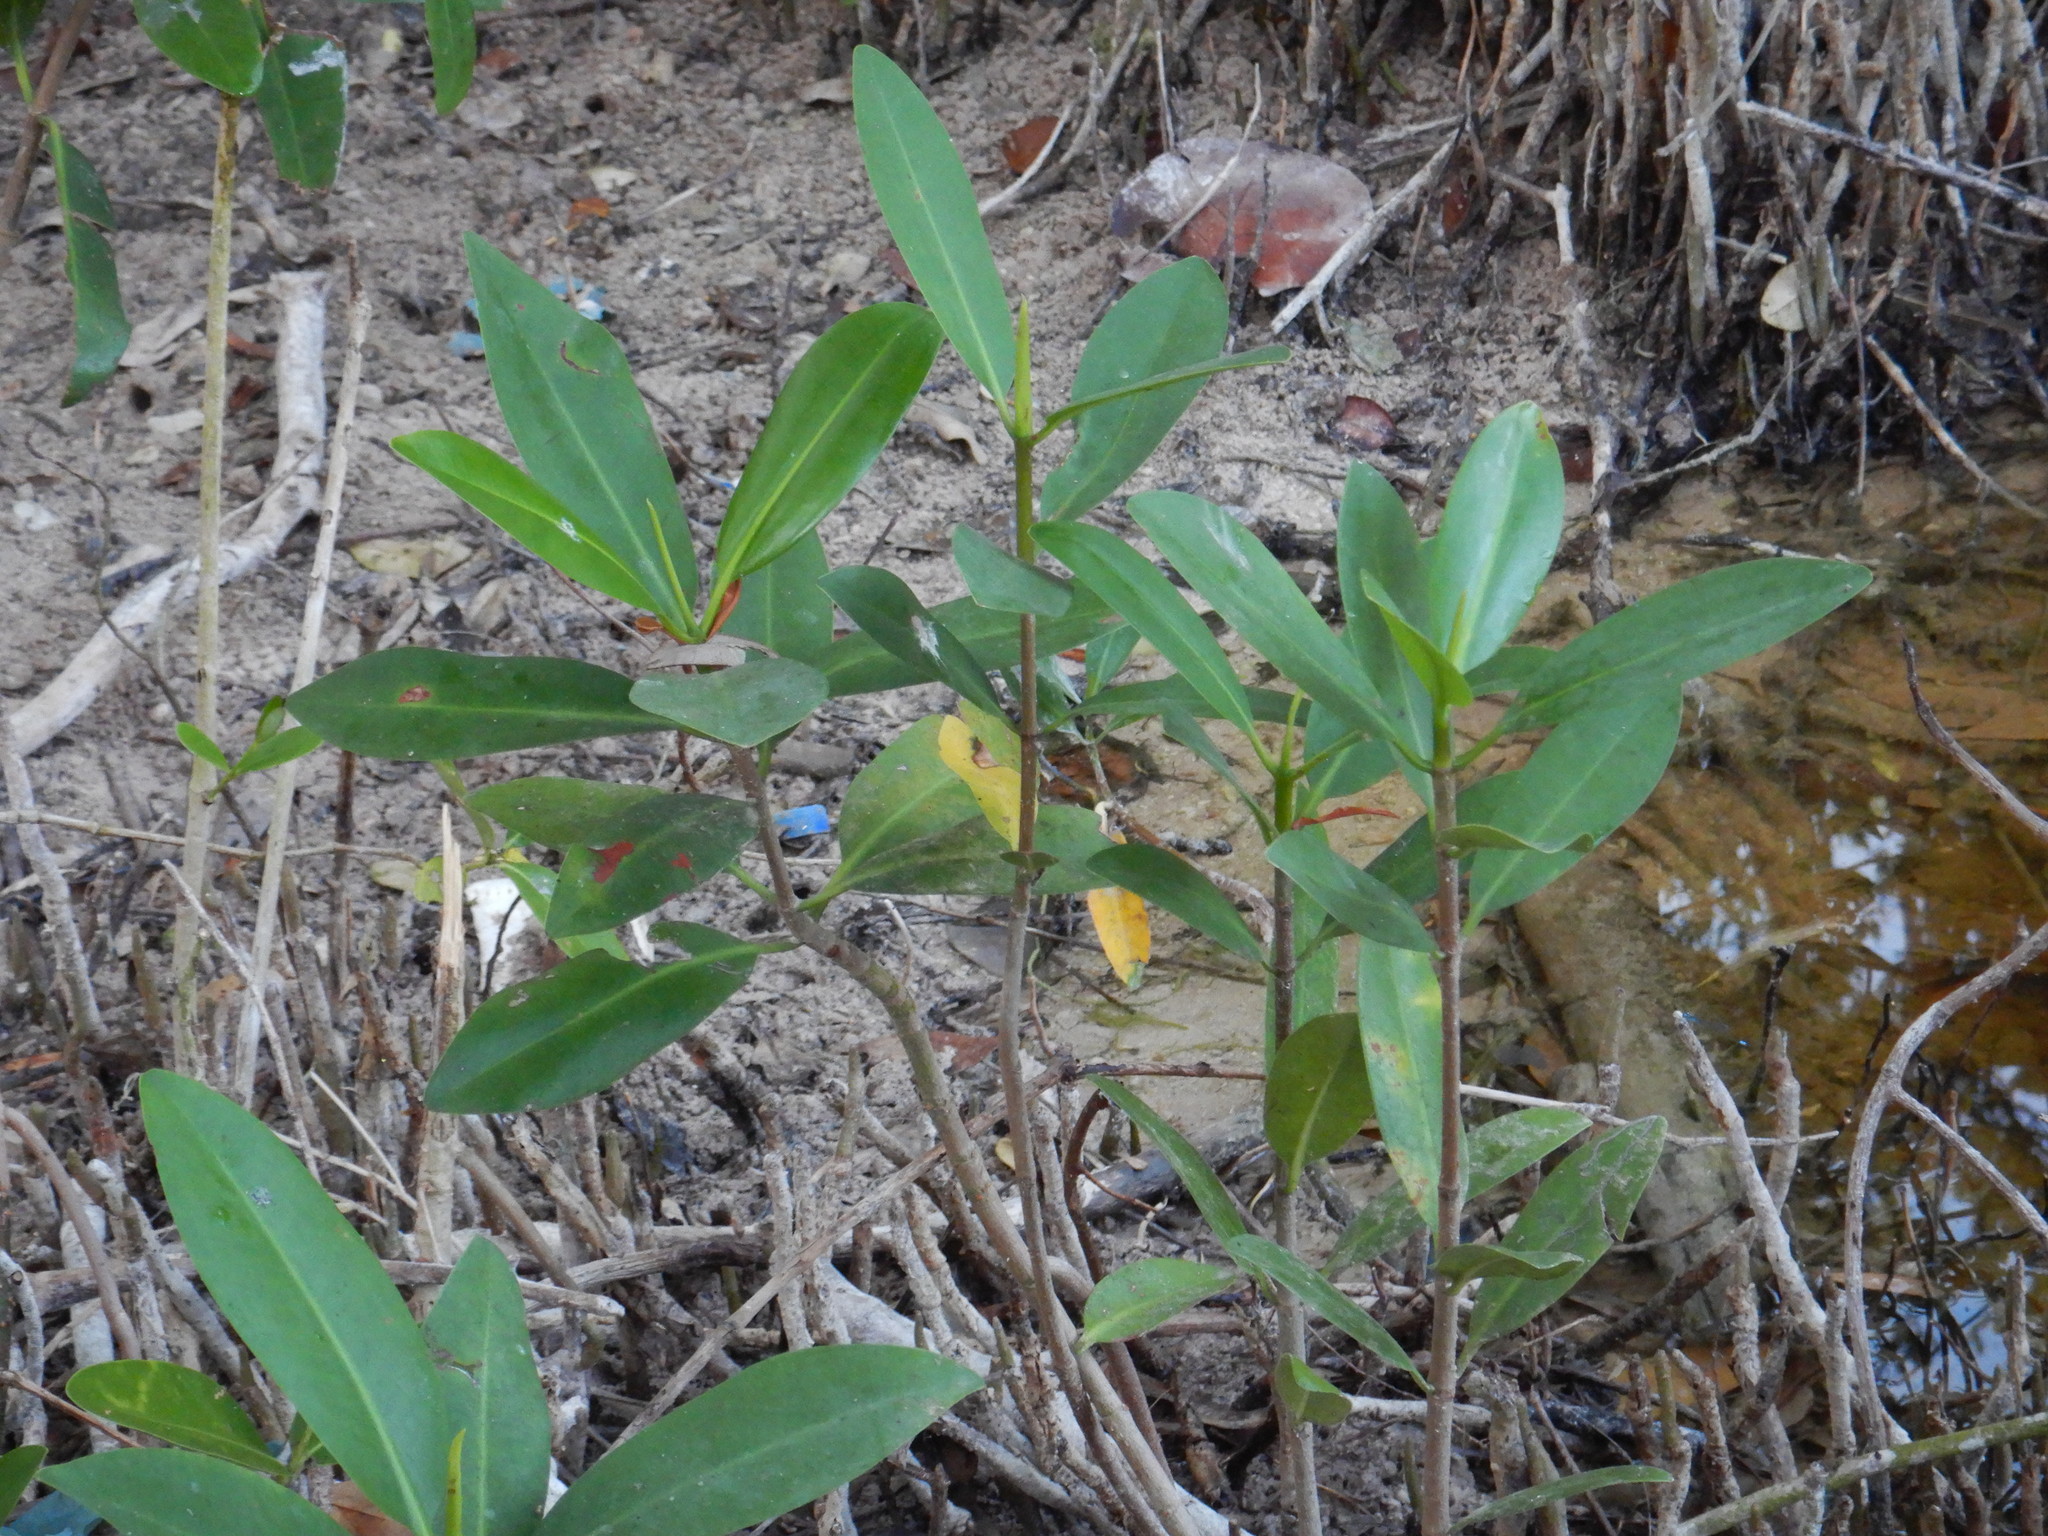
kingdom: Plantae
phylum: Tracheophyta
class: Magnoliopsida
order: Malpighiales
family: Rhizophoraceae
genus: Rhizophora
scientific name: Rhizophora mangle
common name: Red mangrove
